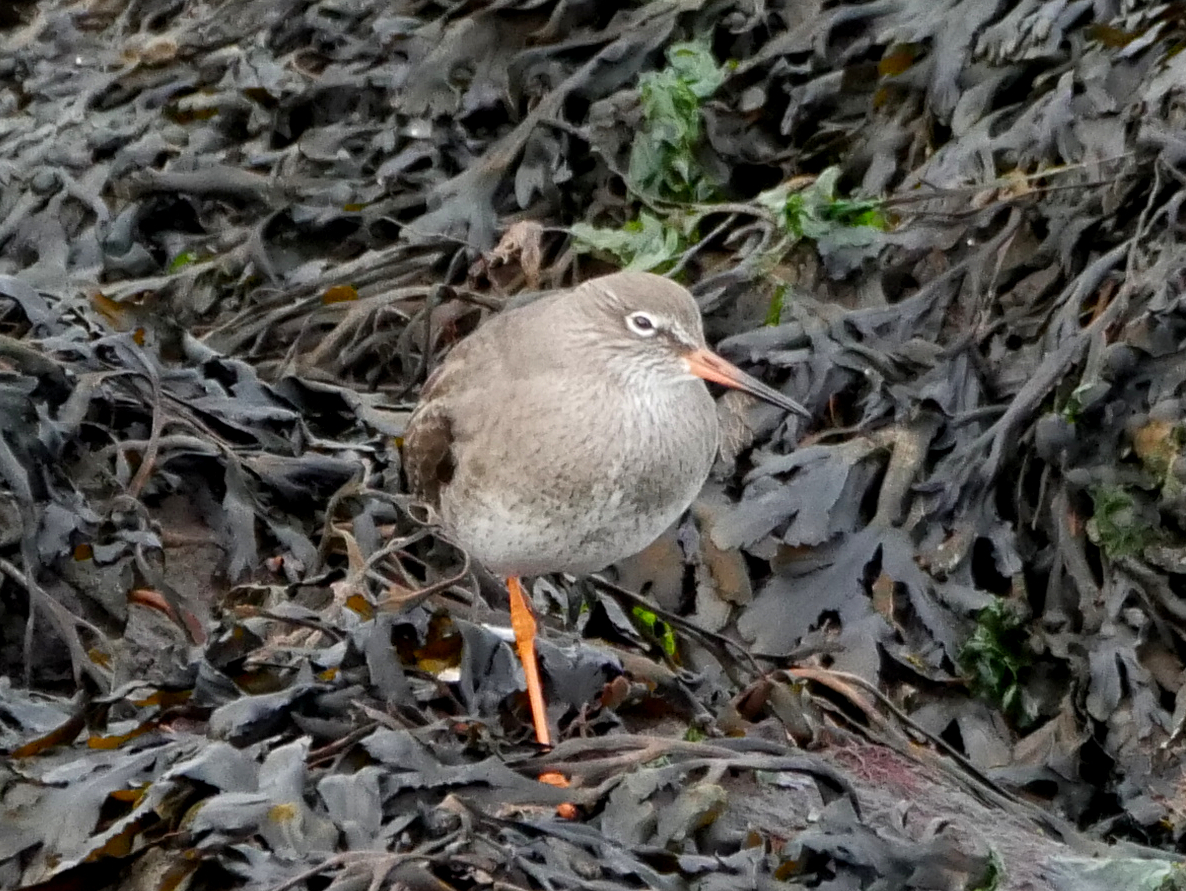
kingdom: Animalia
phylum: Chordata
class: Aves
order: Charadriiformes
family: Scolopacidae
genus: Tringa
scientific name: Tringa totanus
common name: Common redshank
